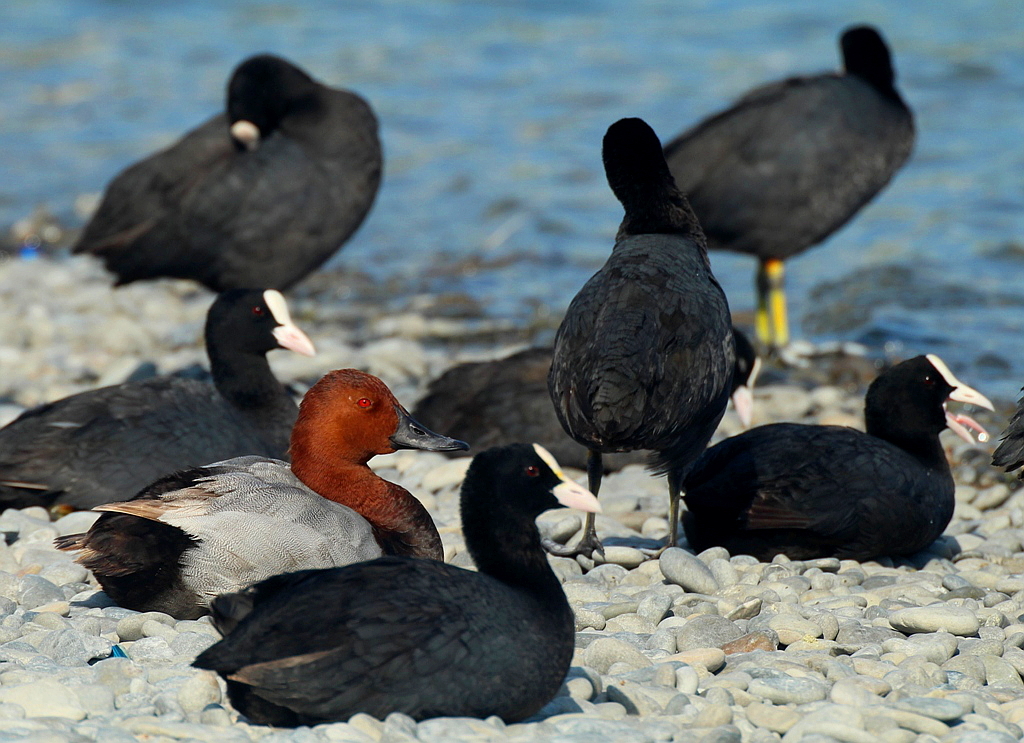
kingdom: Animalia
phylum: Chordata
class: Aves
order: Anseriformes
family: Anatidae
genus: Aythya
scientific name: Aythya ferina
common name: Common pochard
